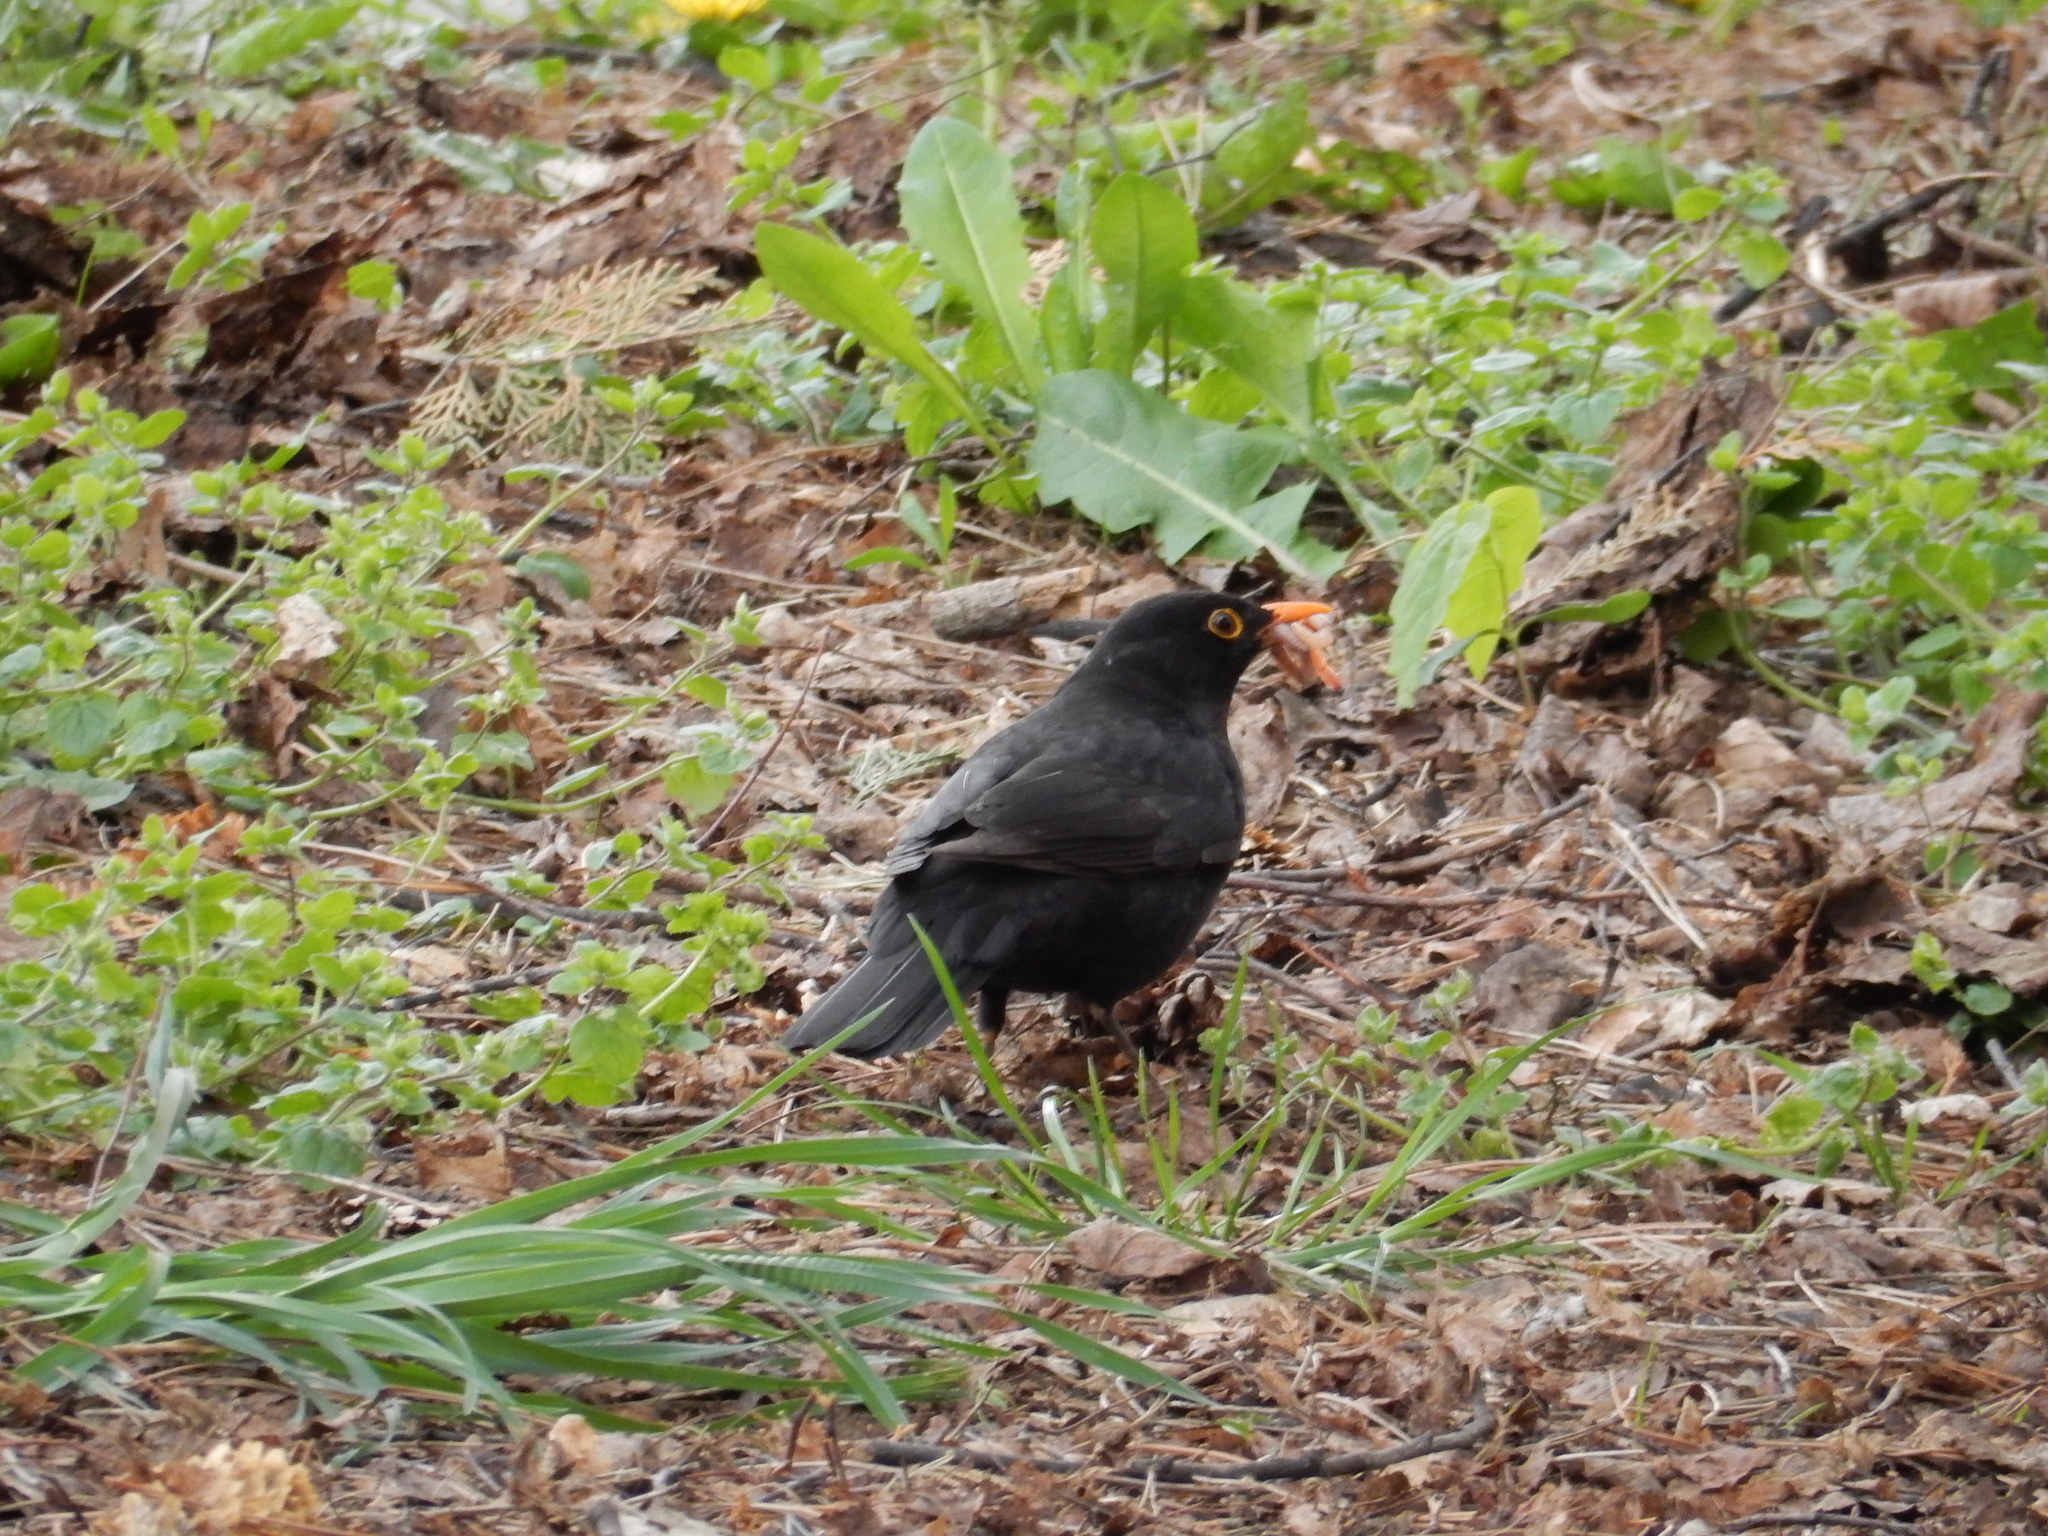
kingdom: Animalia
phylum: Chordata
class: Aves
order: Passeriformes
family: Turdidae
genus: Turdus
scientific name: Turdus merula
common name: Common blackbird
